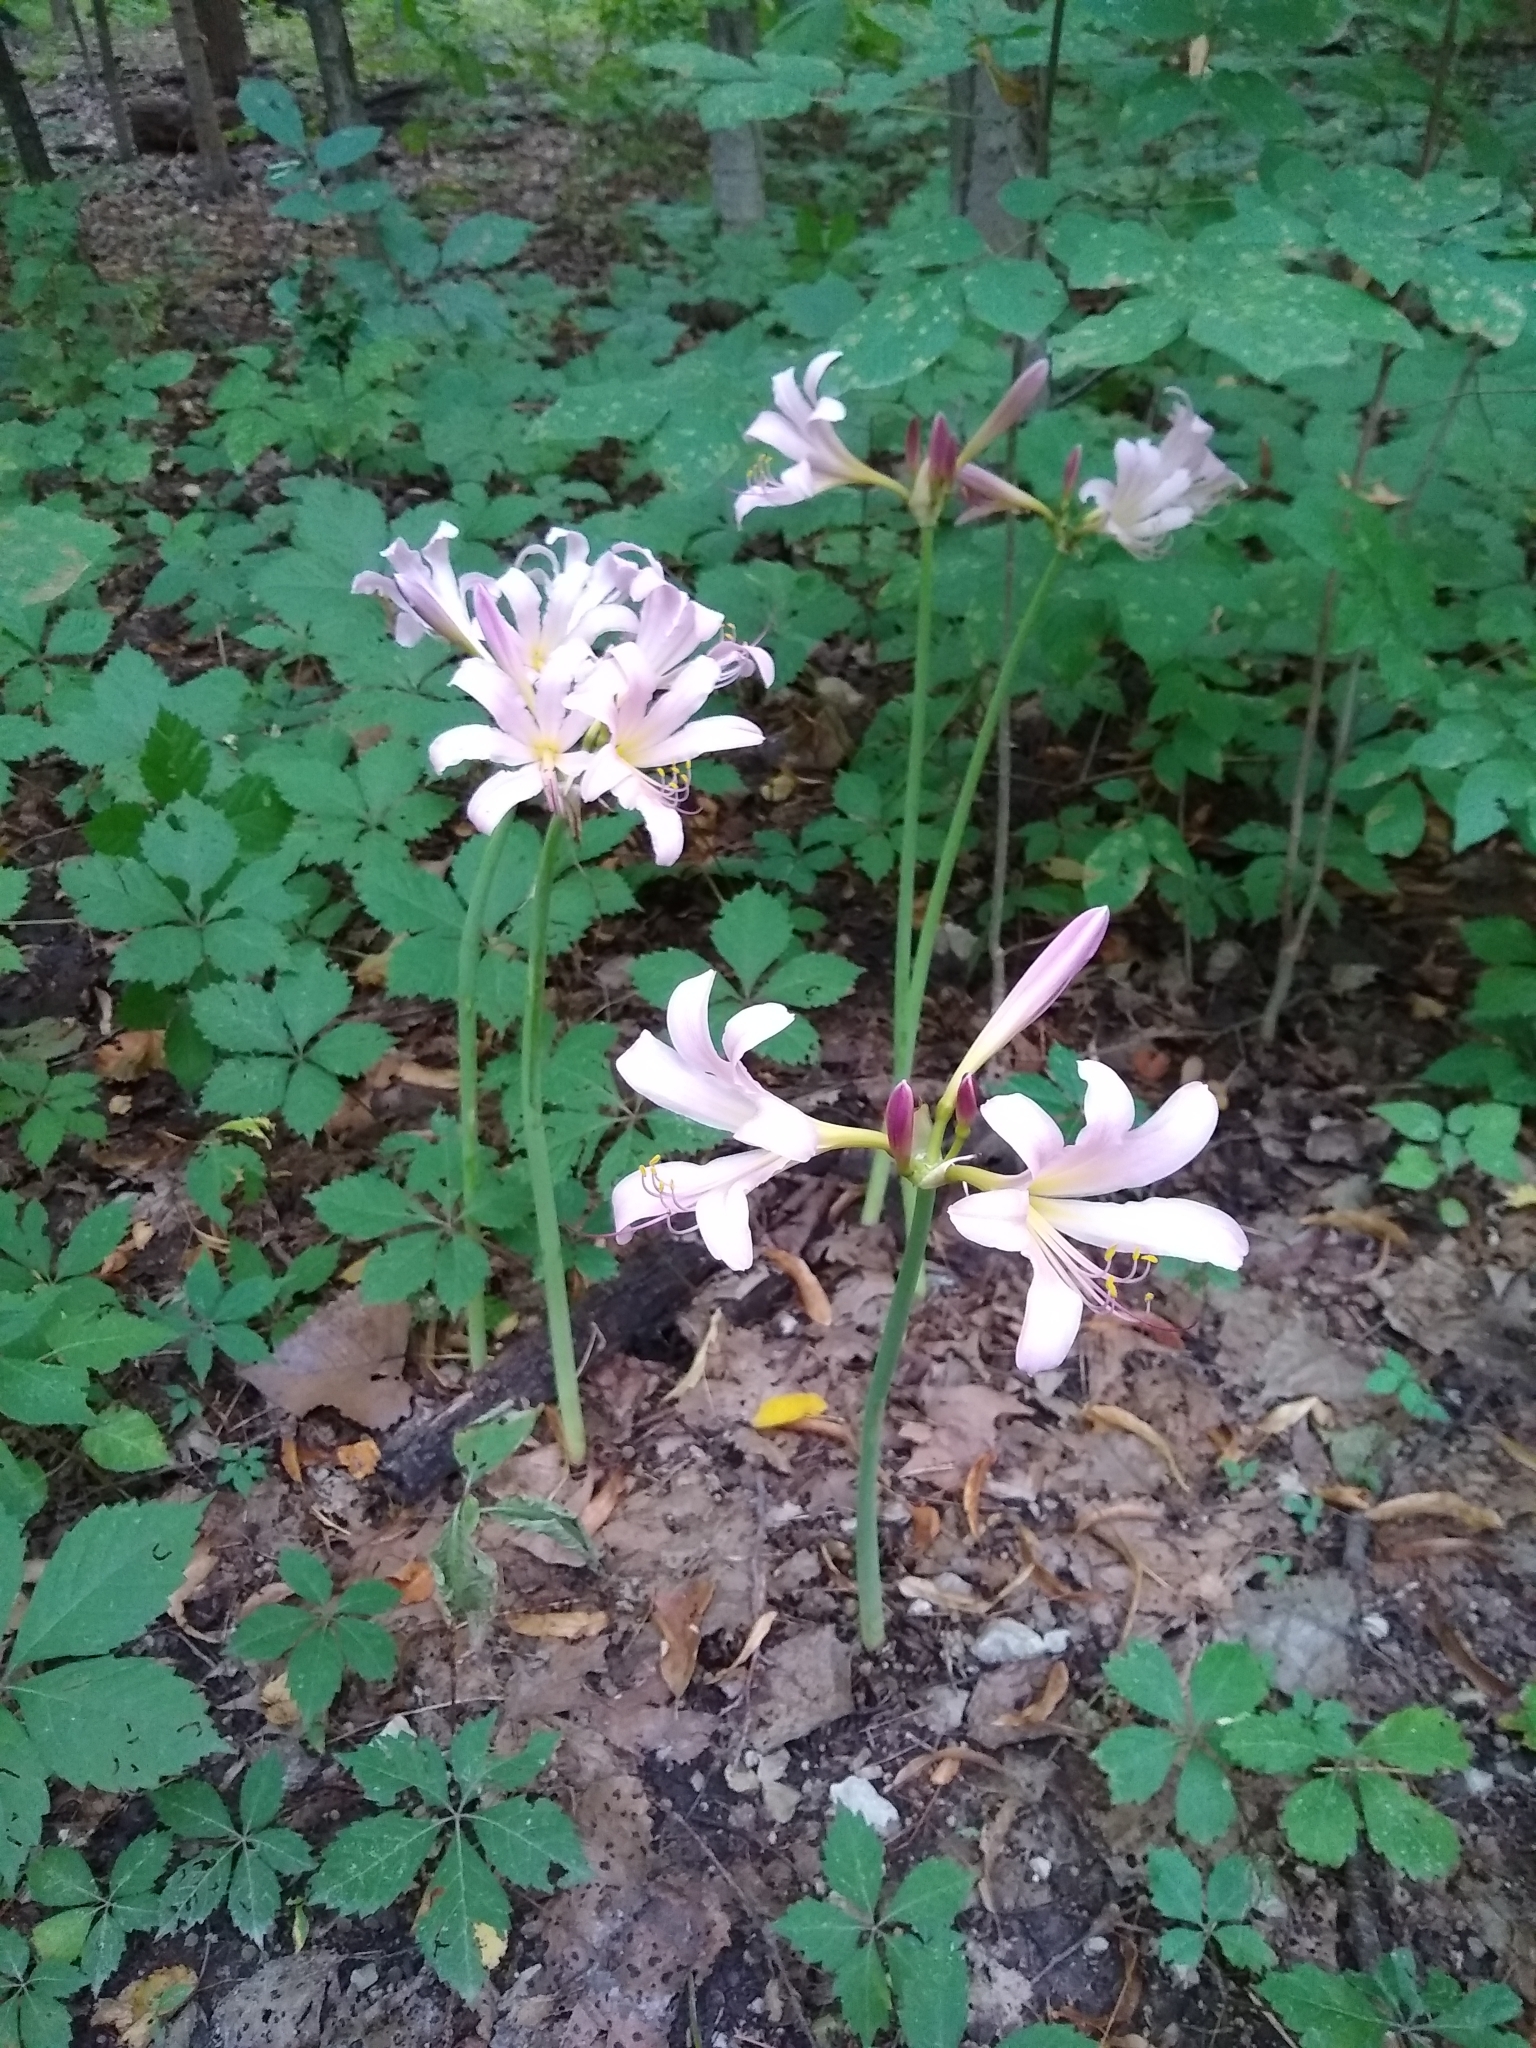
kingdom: Plantae
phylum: Tracheophyta
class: Liliopsida
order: Asparagales
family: Amaryllidaceae
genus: Lycoris
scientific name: Lycoris squamigera
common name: Magic-lily
